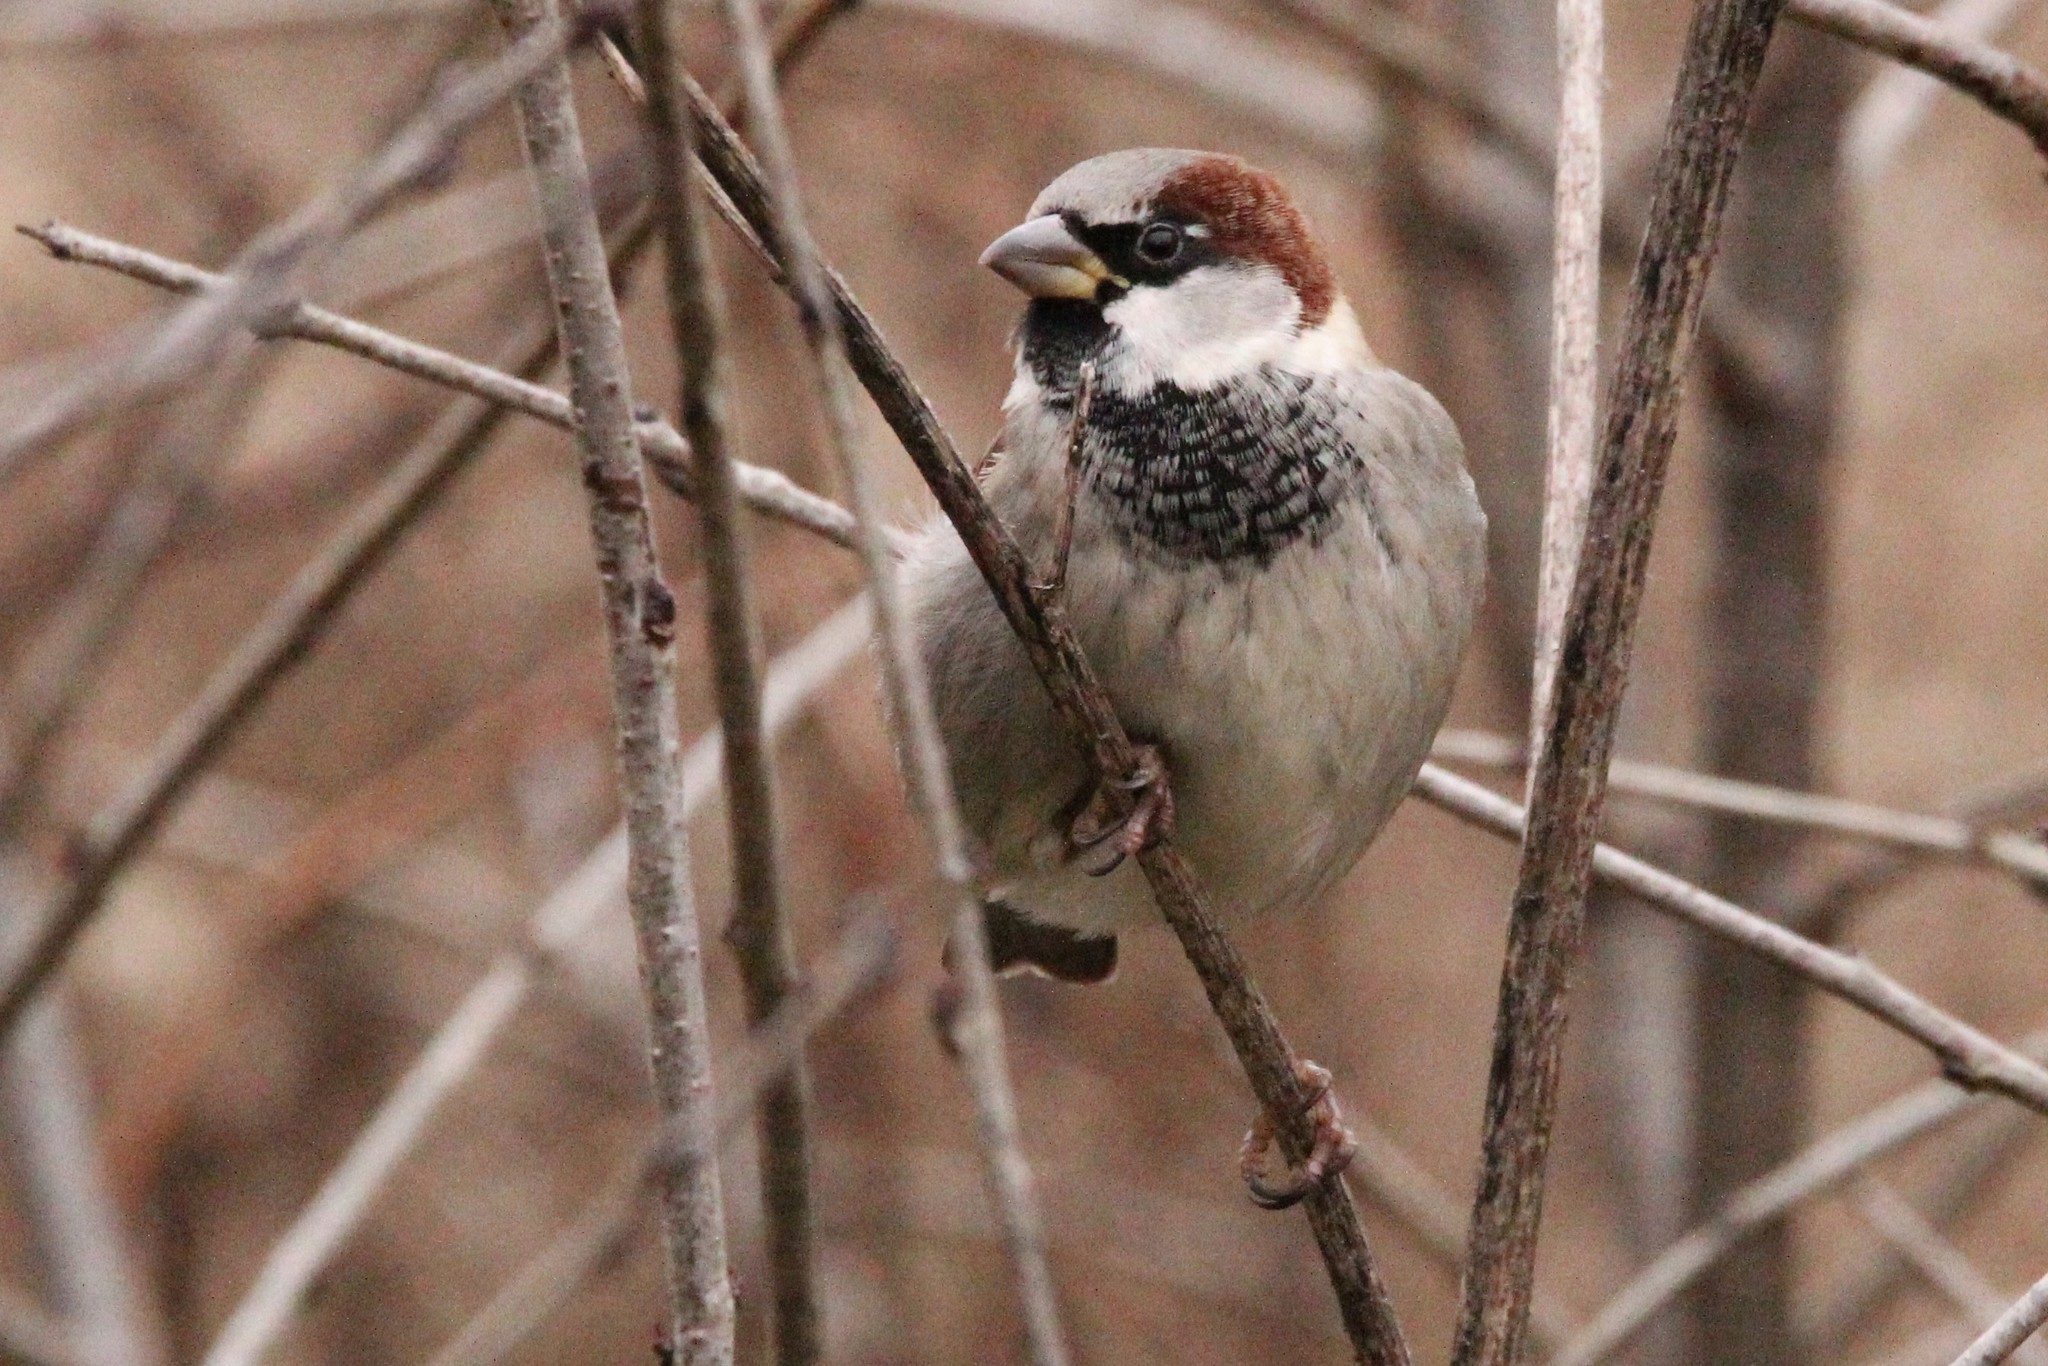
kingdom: Animalia
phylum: Chordata
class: Aves
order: Passeriformes
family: Passeridae
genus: Passer
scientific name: Passer domesticus
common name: House sparrow
